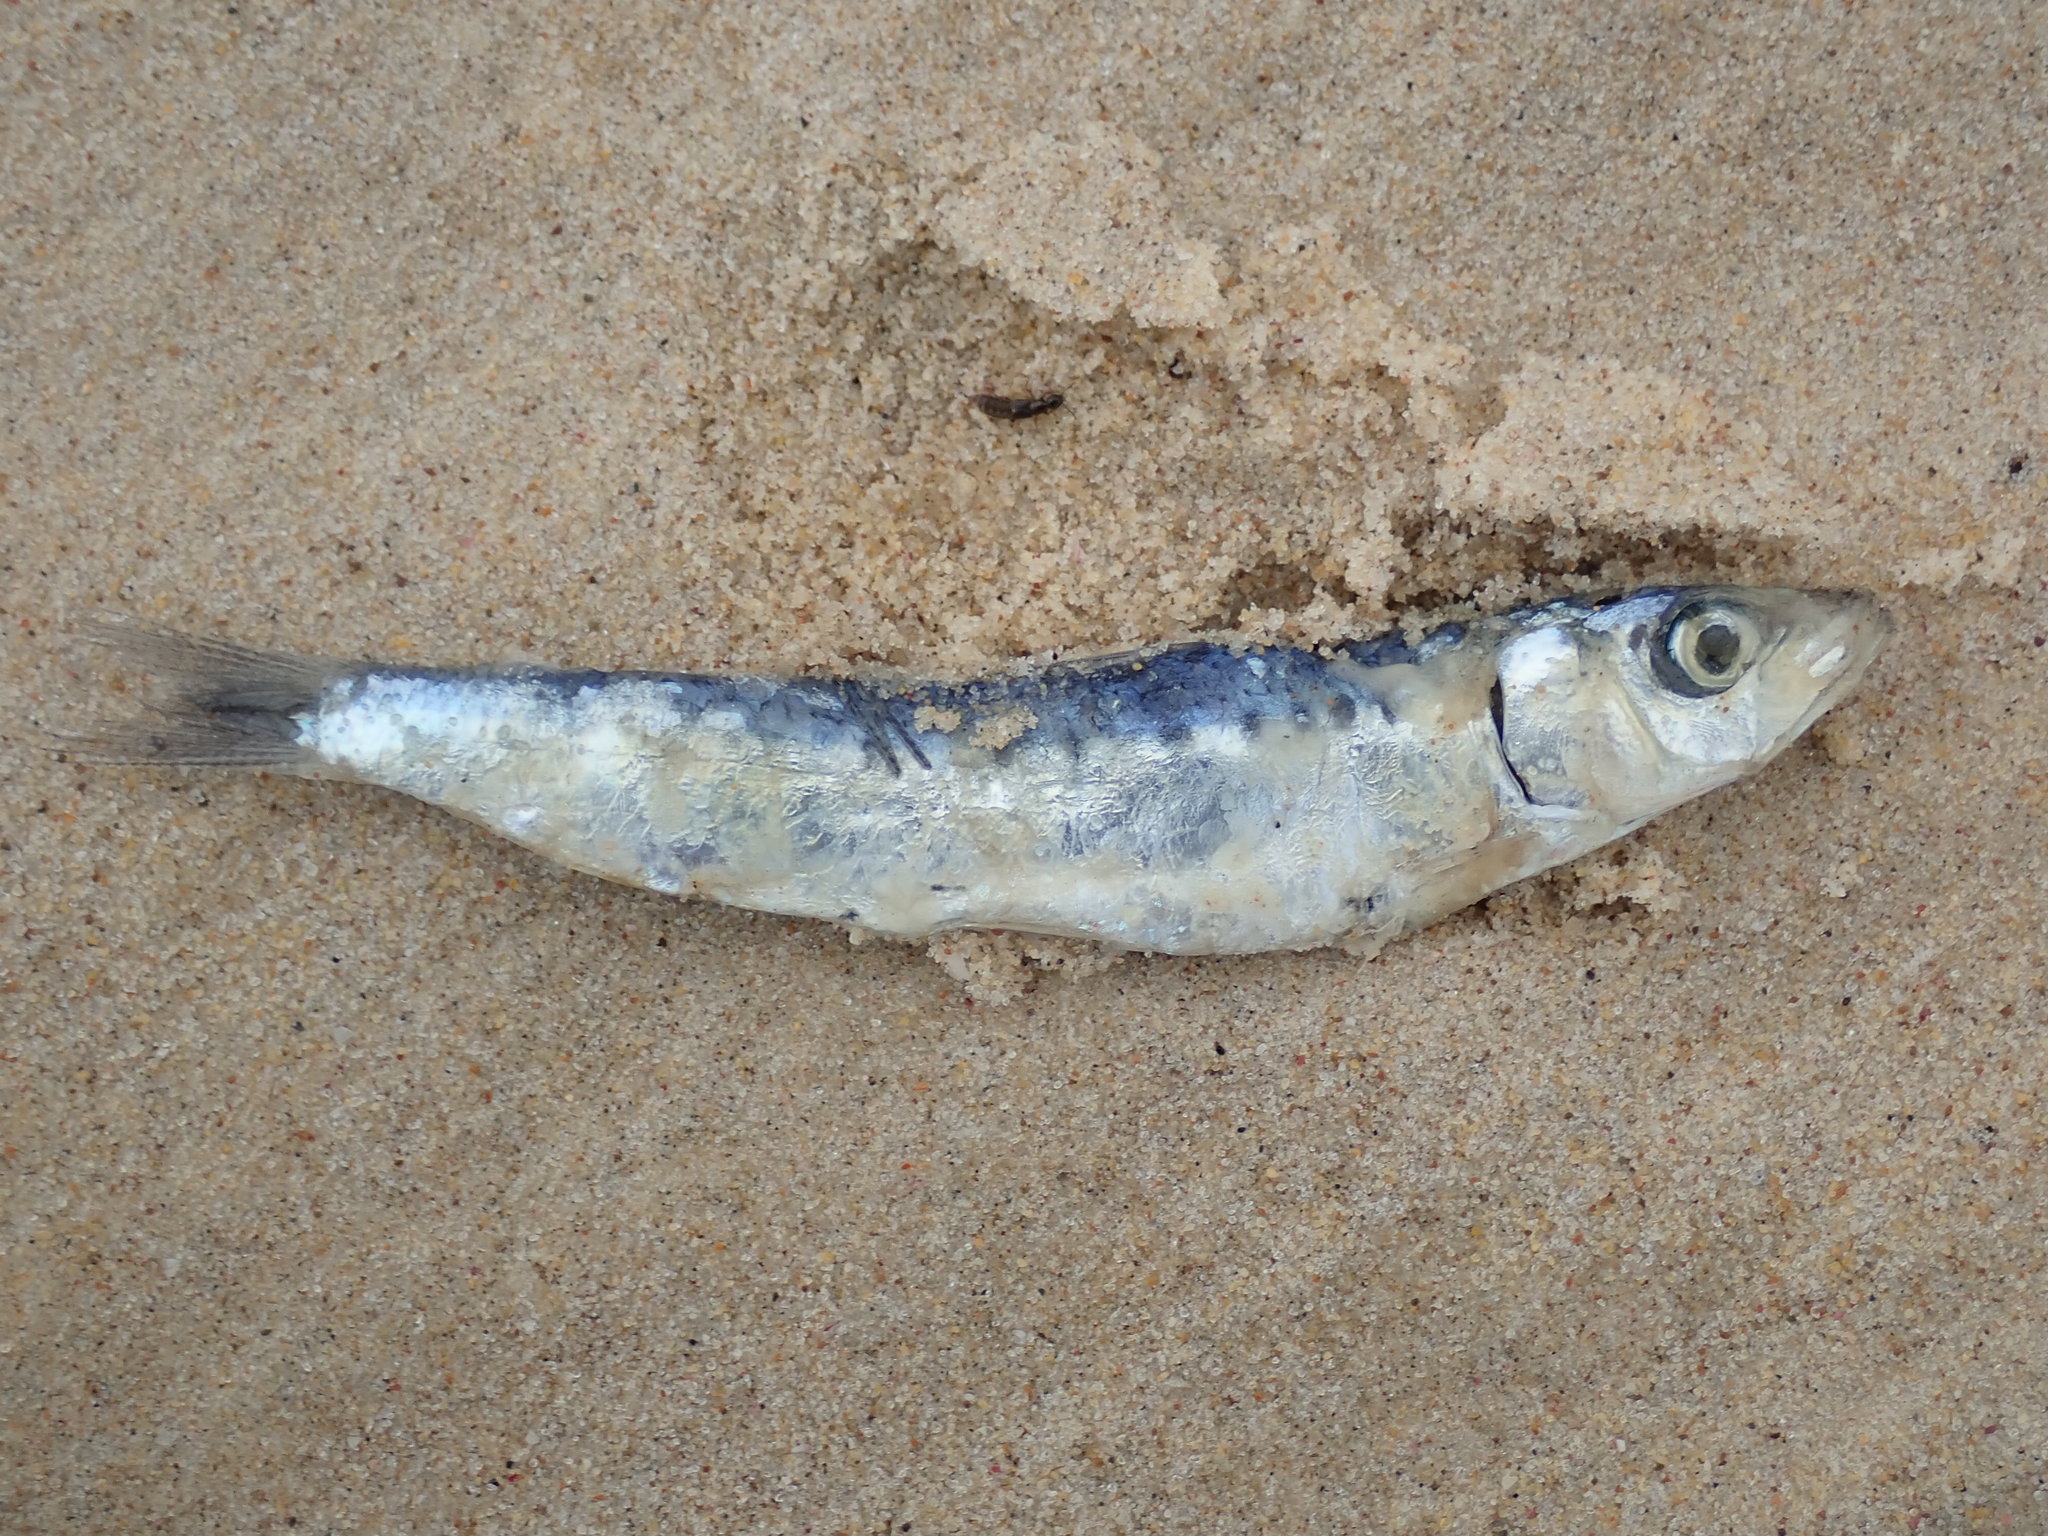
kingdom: Animalia
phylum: Chordata
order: Clupeiformes
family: Clupeidae
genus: Sardinops
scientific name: Sardinops sagax
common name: Pilchard
